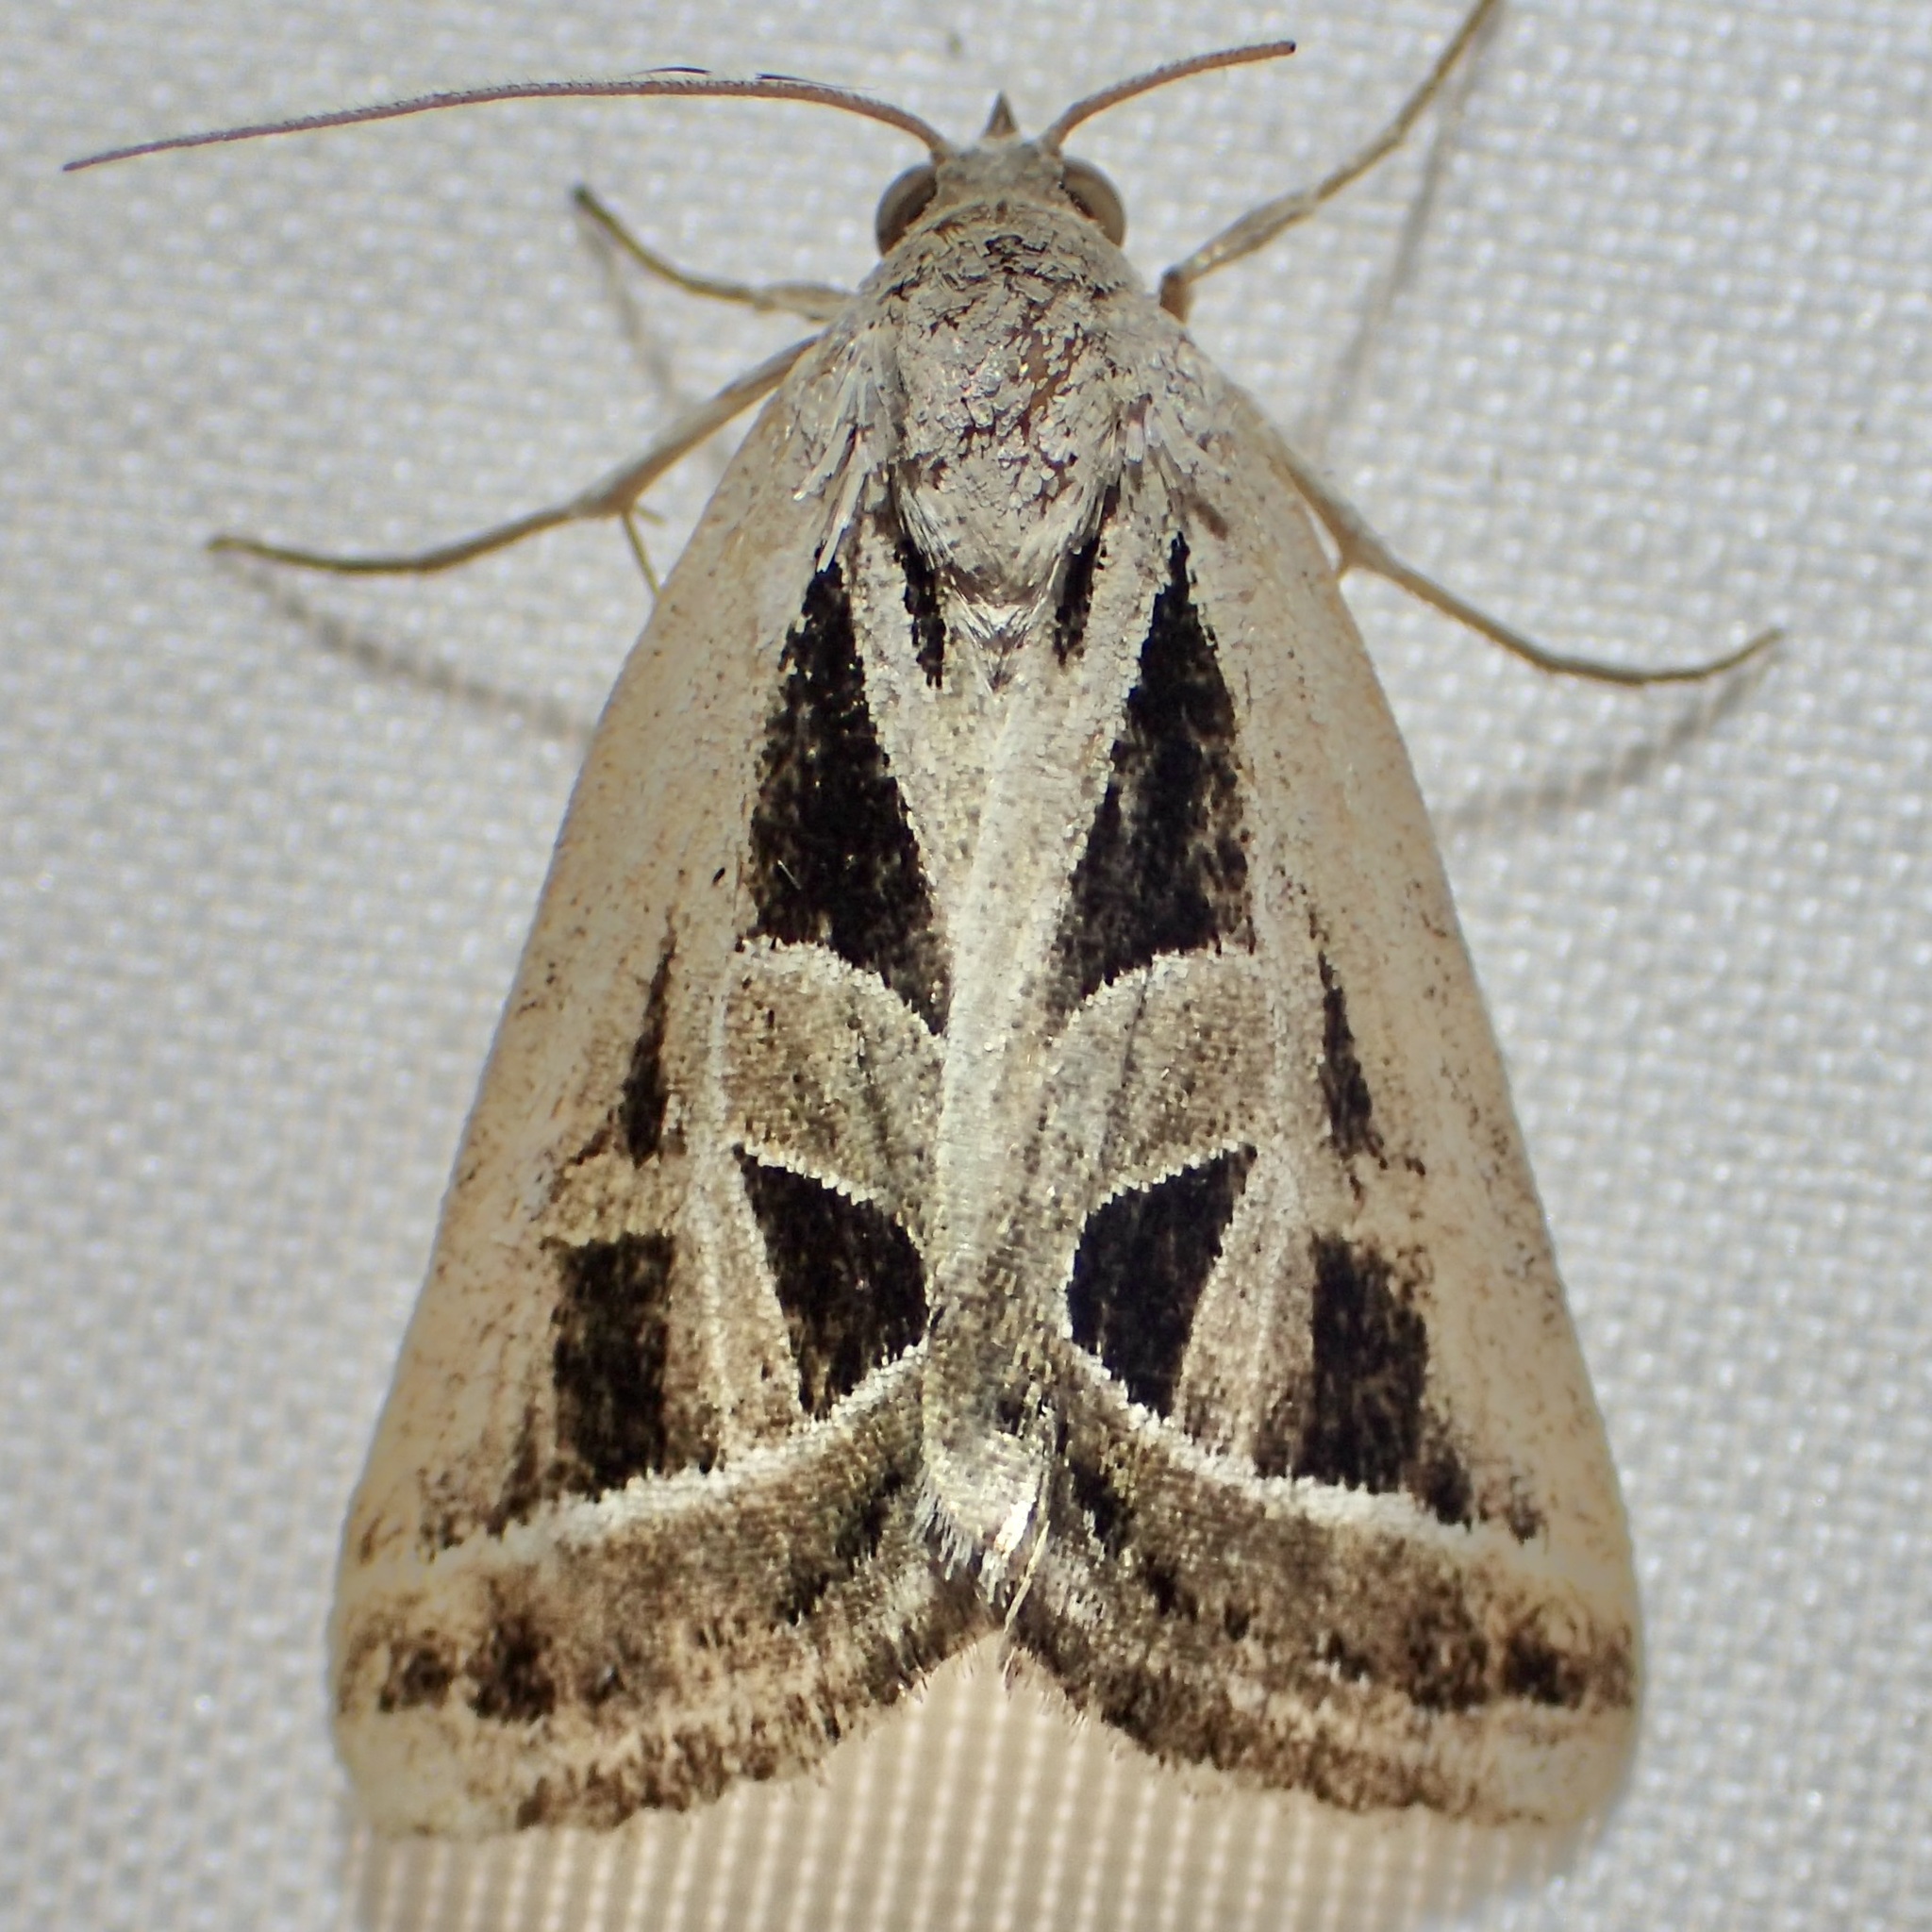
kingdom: Animalia
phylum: Arthropoda
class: Insecta
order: Lepidoptera
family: Erebidae
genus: Callistege
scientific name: Callistege diagonalis
